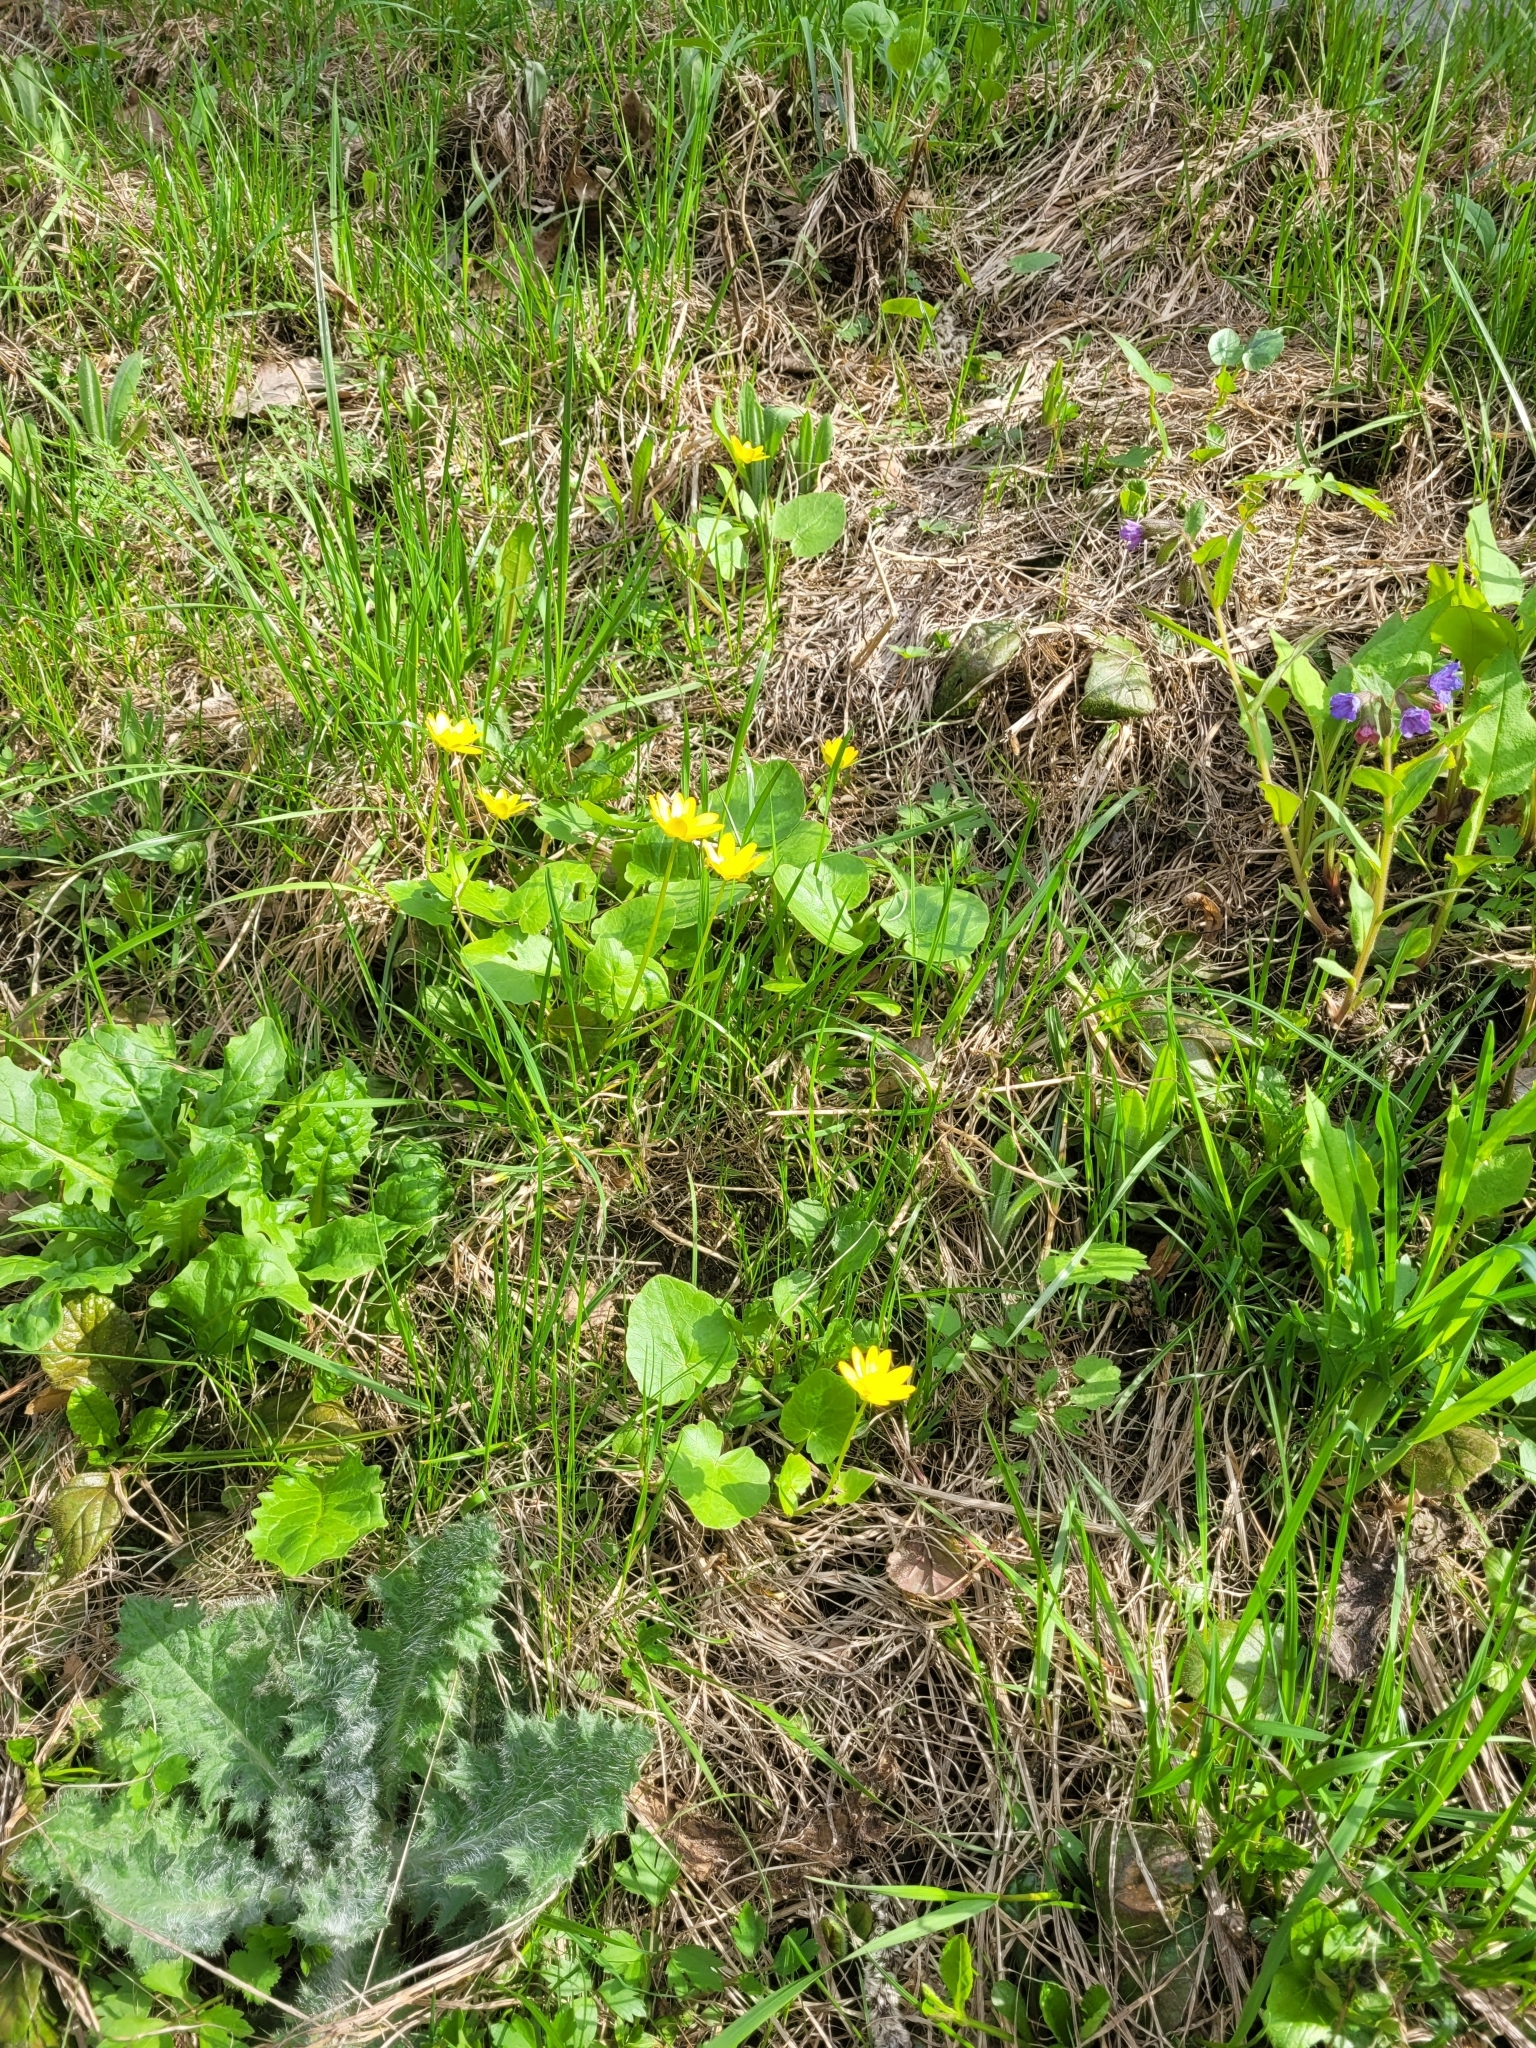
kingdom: Plantae
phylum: Tracheophyta
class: Magnoliopsida
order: Ranunculales
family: Ranunculaceae
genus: Ficaria
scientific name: Ficaria verna
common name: Lesser celandine
